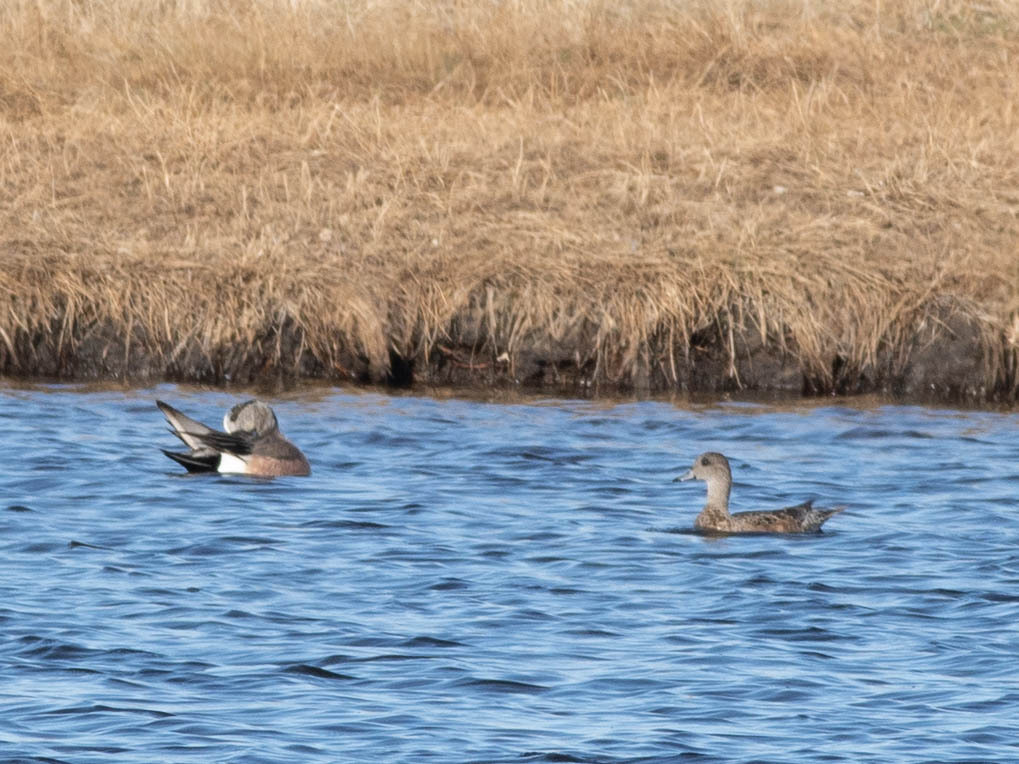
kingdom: Animalia
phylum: Chordata
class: Aves
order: Anseriformes
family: Anatidae
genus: Mareca
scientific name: Mareca americana
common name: American wigeon
